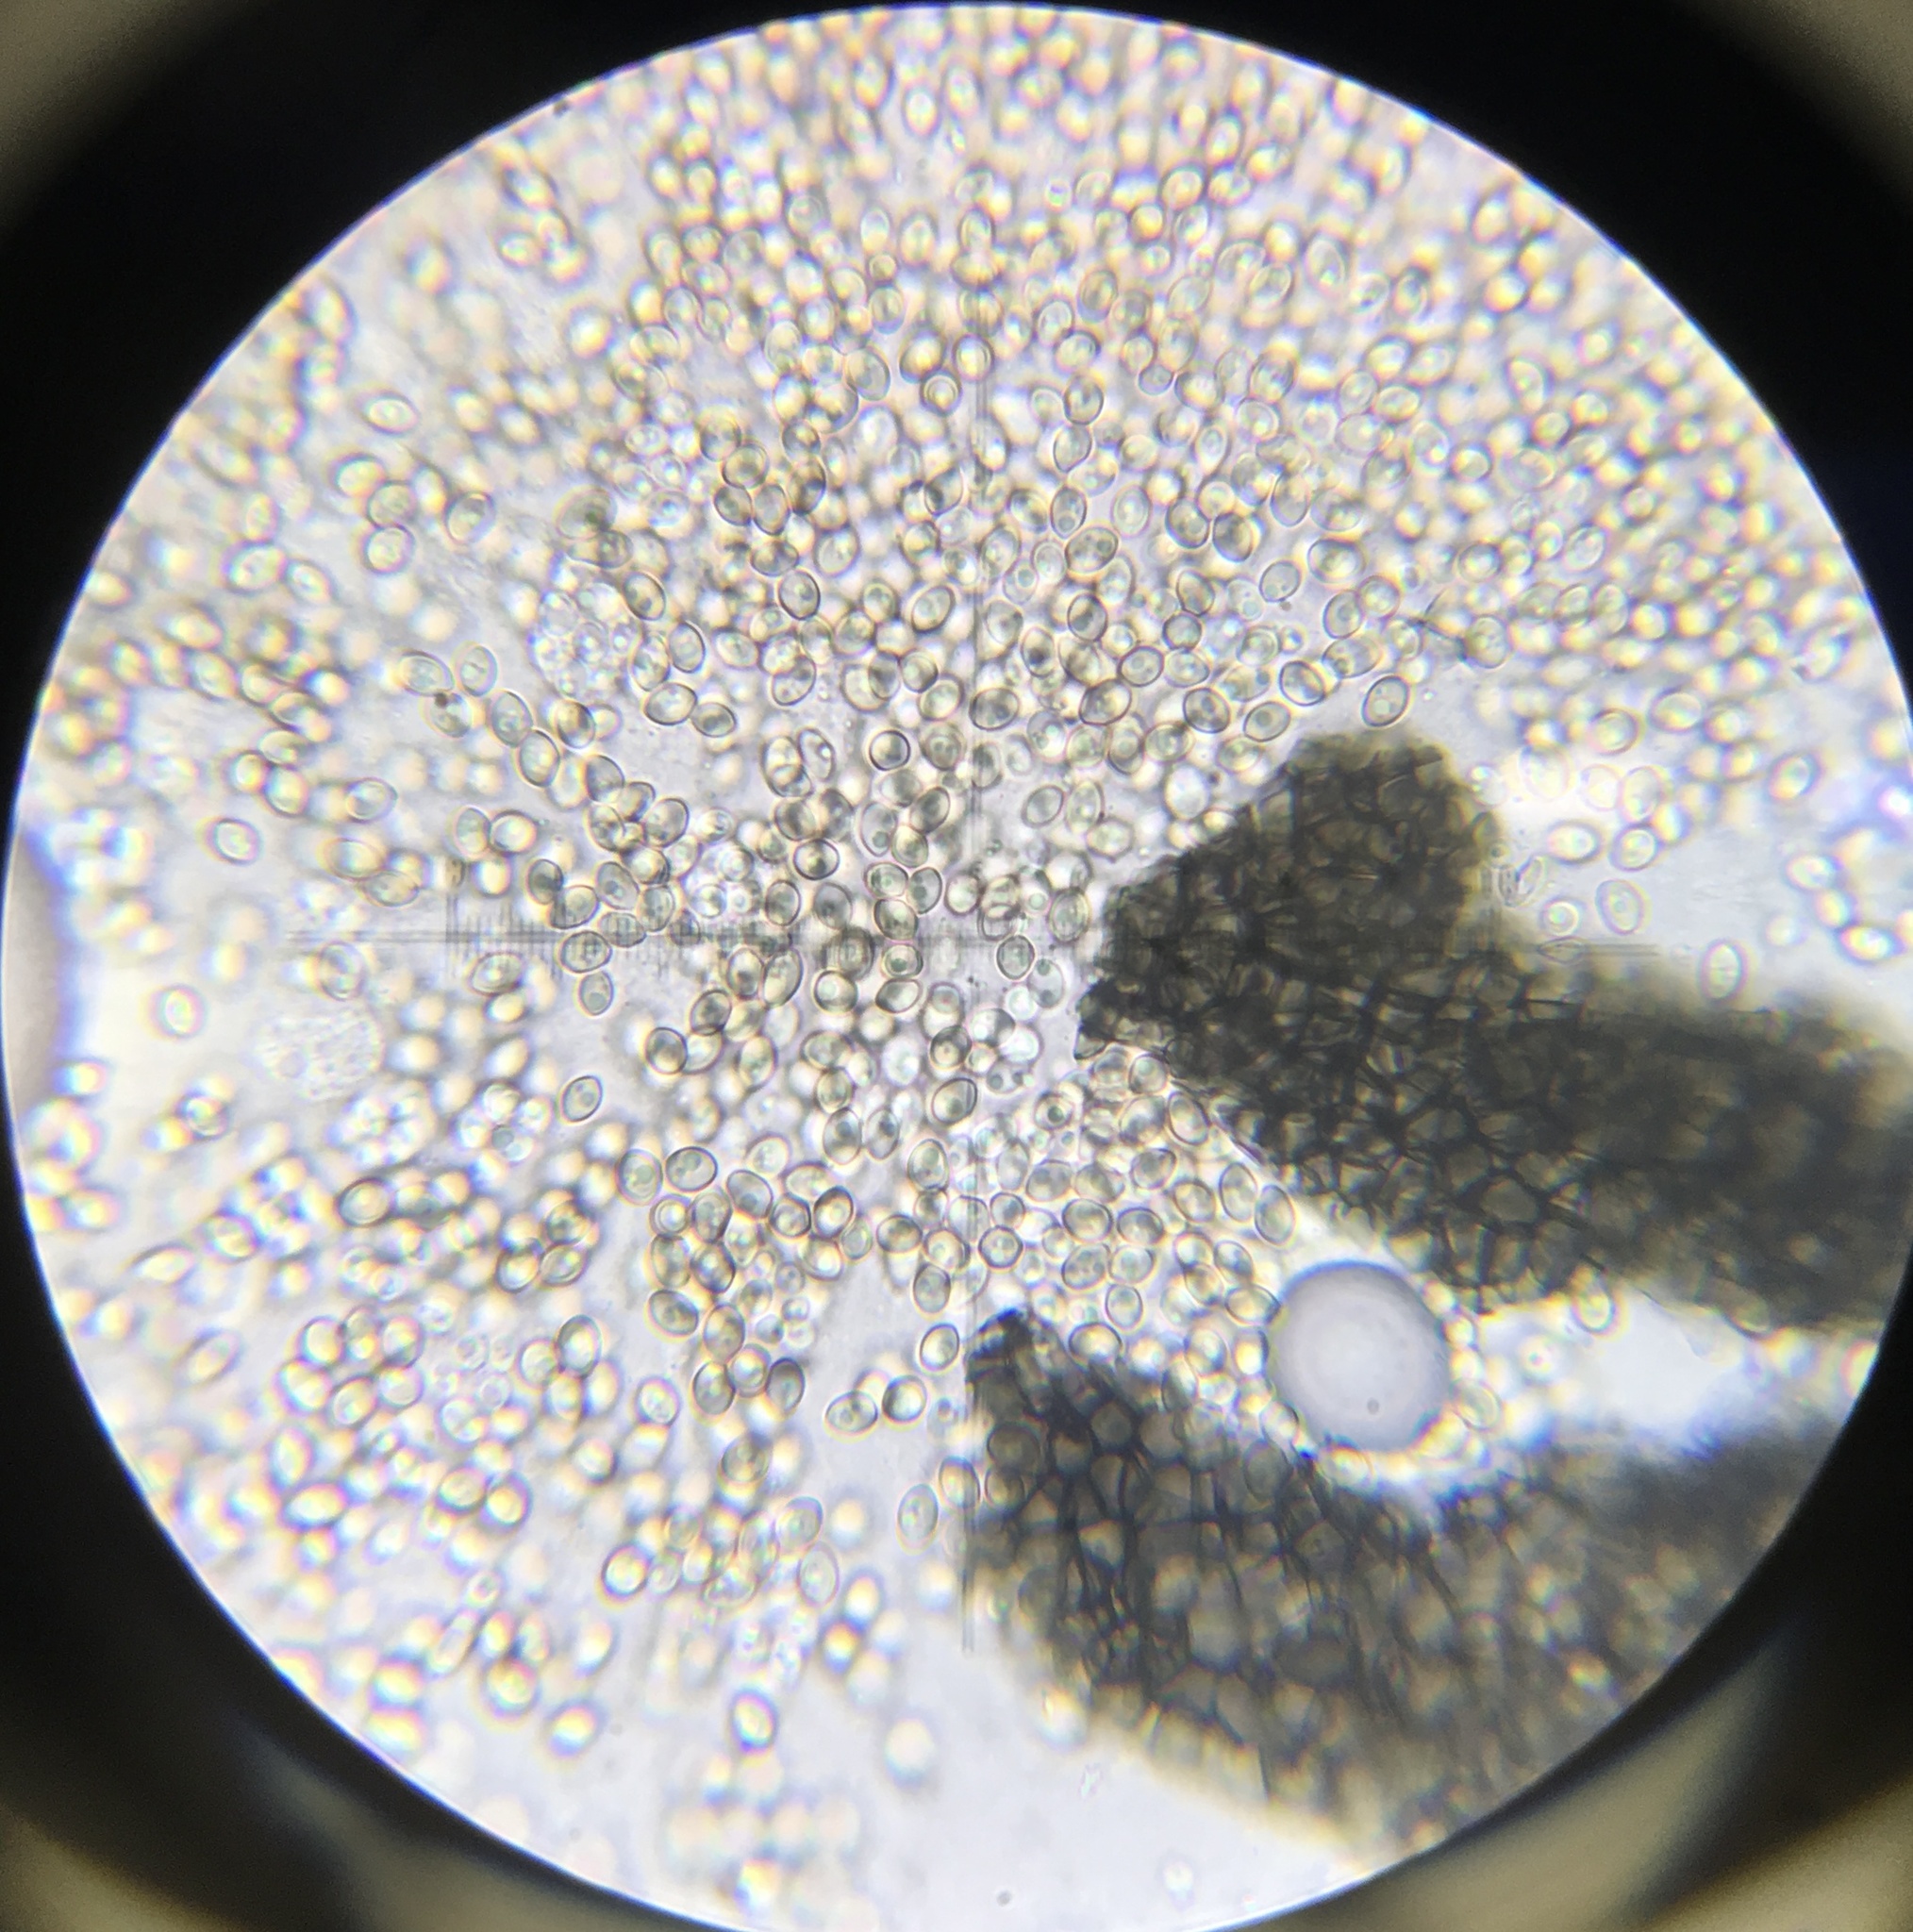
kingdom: Fungi
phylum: Ascomycota
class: Sordariomycetes
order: Microascales
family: Microascaceae
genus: Kernia
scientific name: Kernia nitida
